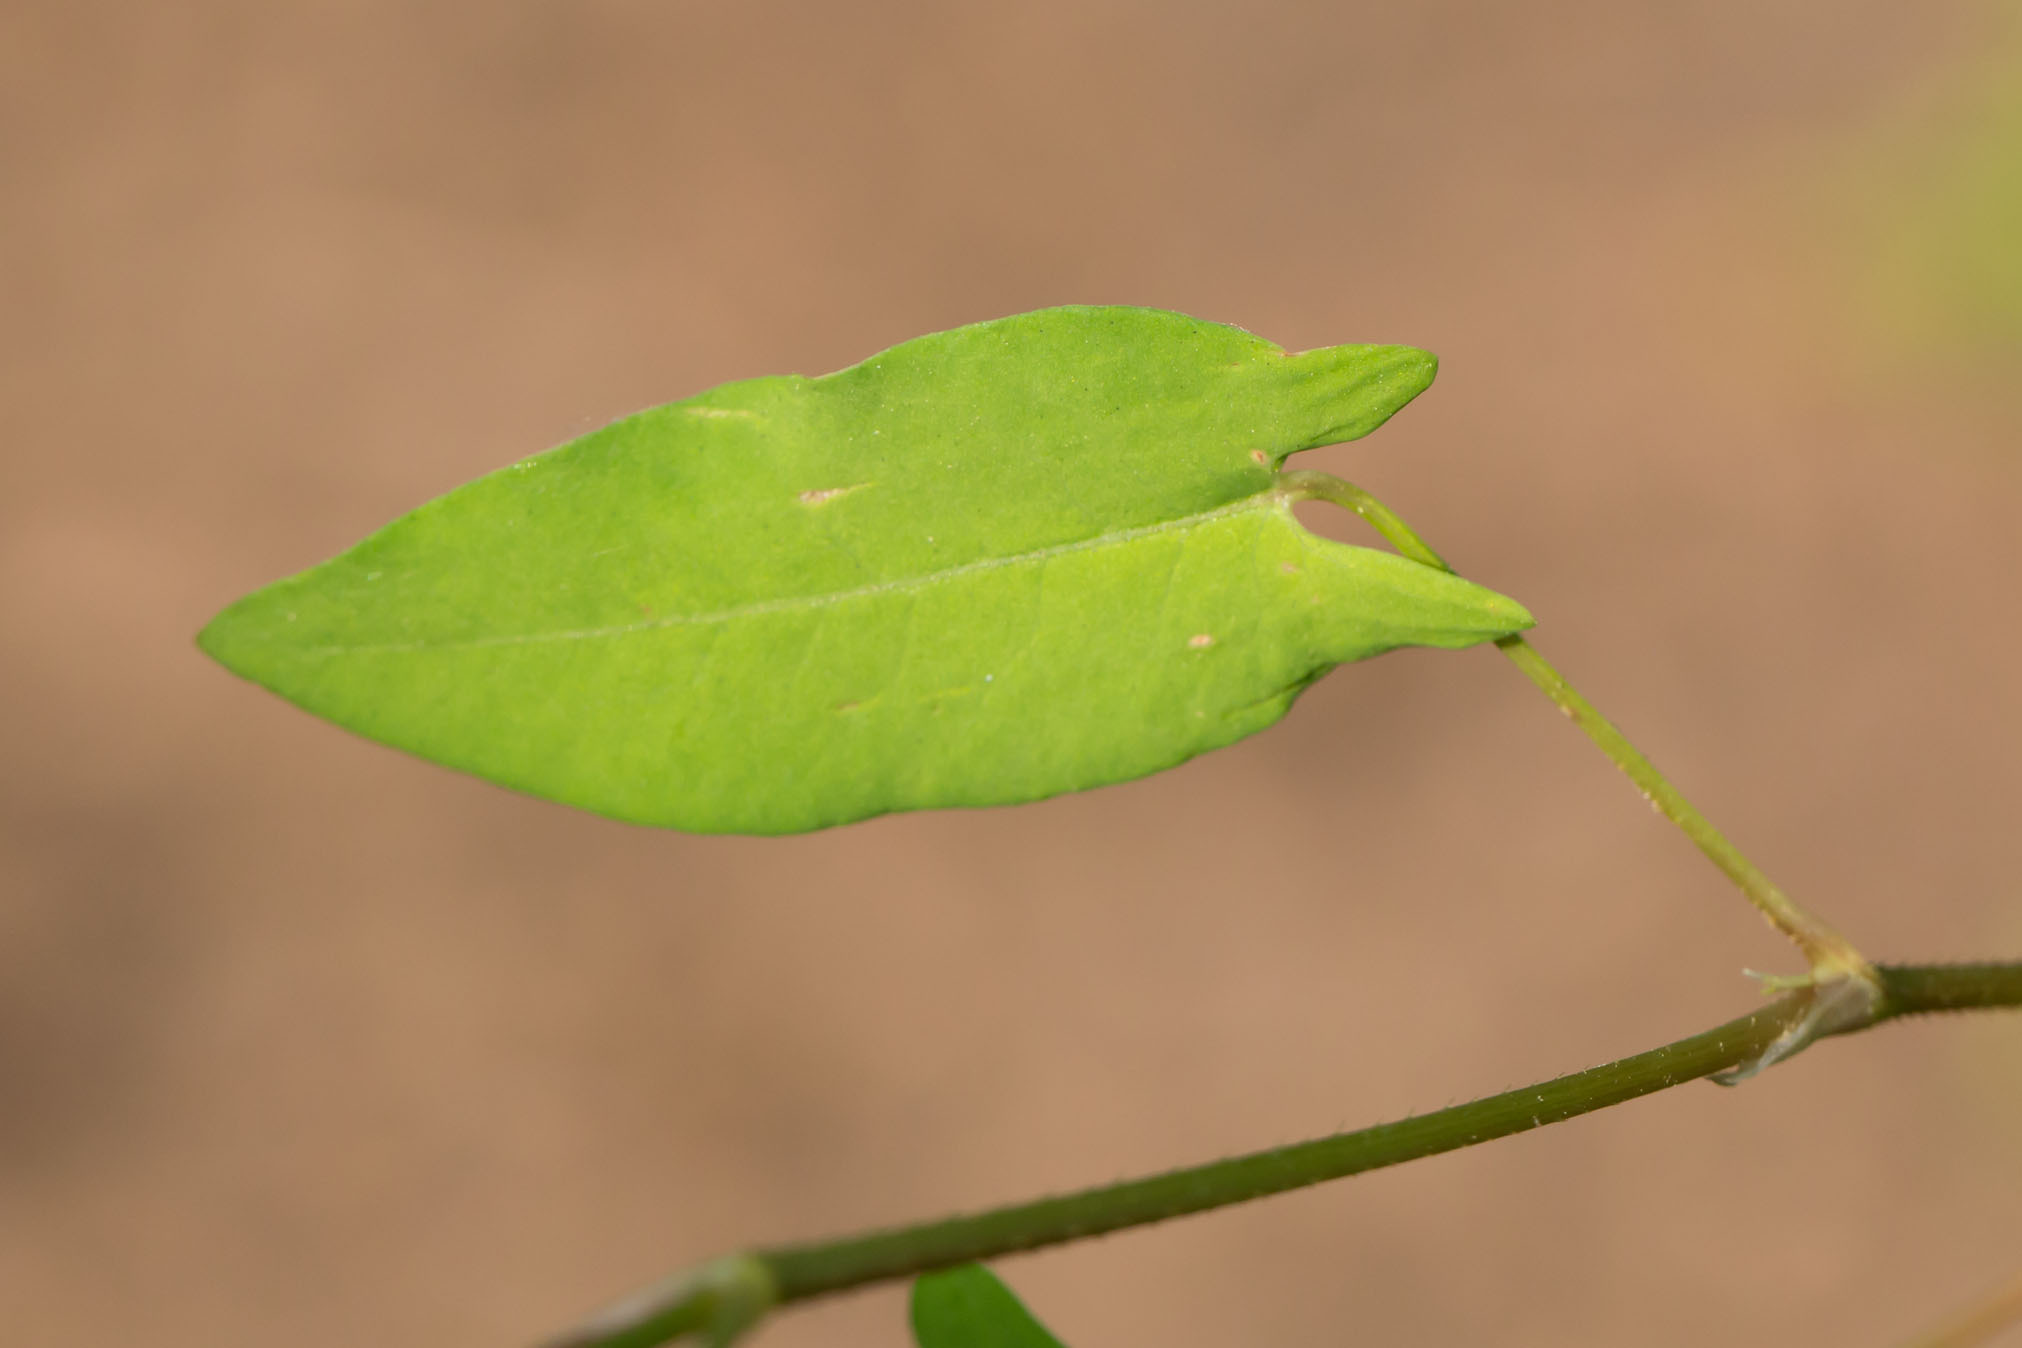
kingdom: Plantae
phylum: Tracheophyta
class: Magnoliopsida
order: Caryophyllales
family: Polygonaceae
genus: Persicaria
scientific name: Persicaria sagittata
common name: American tearthumb
